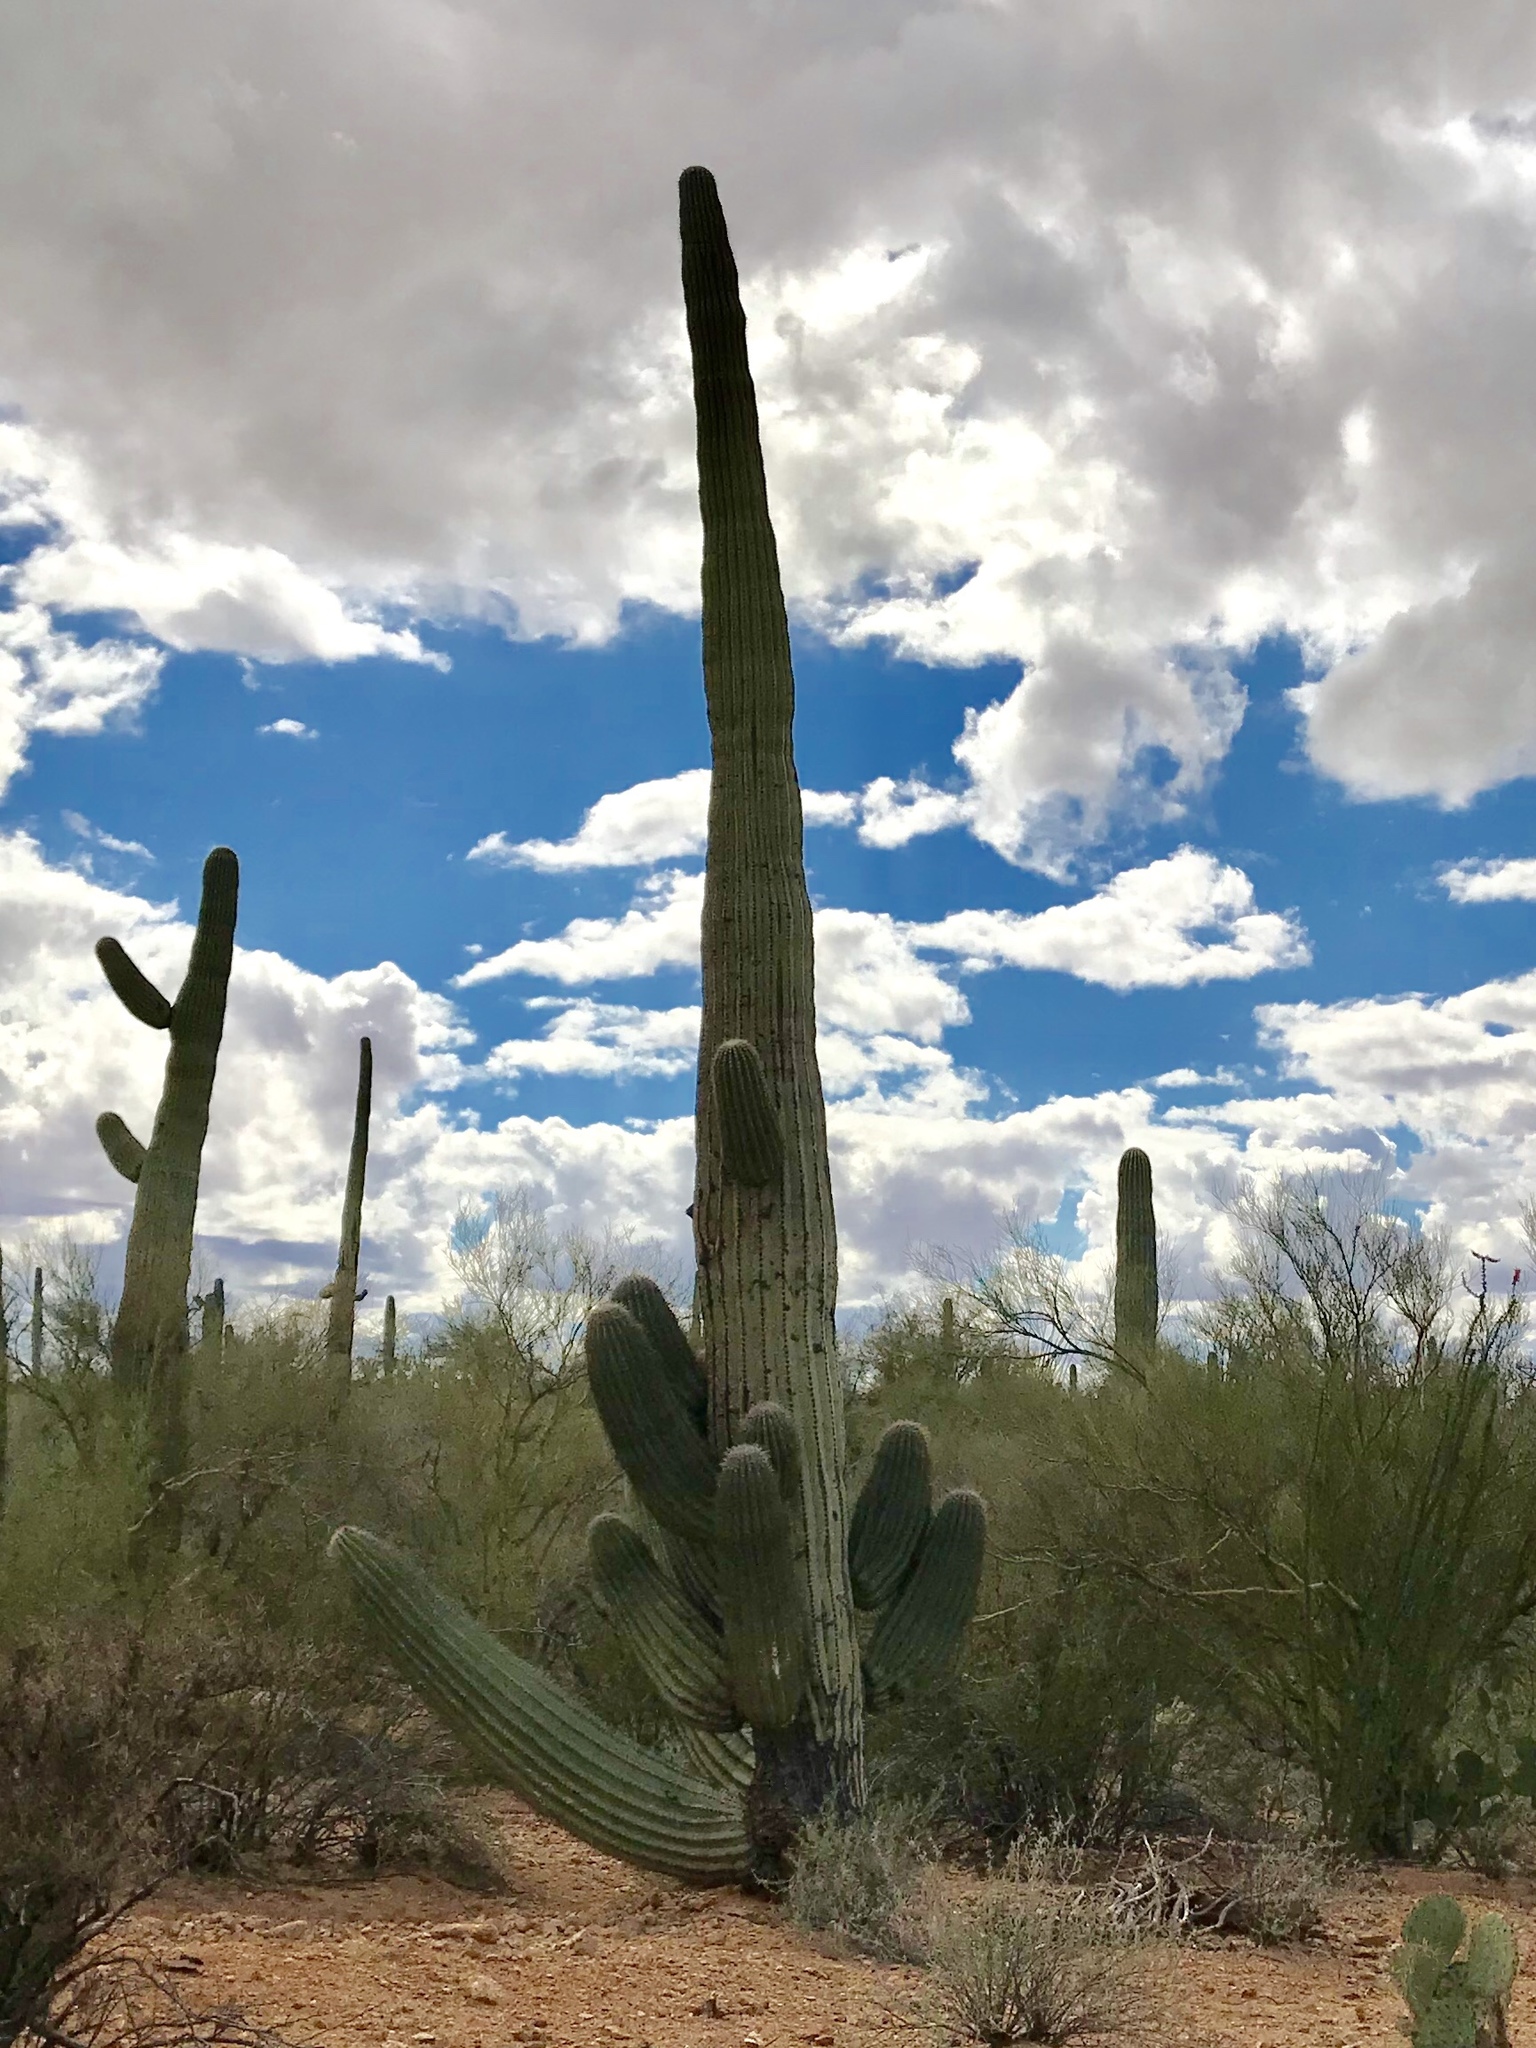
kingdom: Plantae
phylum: Tracheophyta
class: Magnoliopsida
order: Caryophyllales
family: Cactaceae
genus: Carnegiea
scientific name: Carnegiea gigantea
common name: Saguaro
